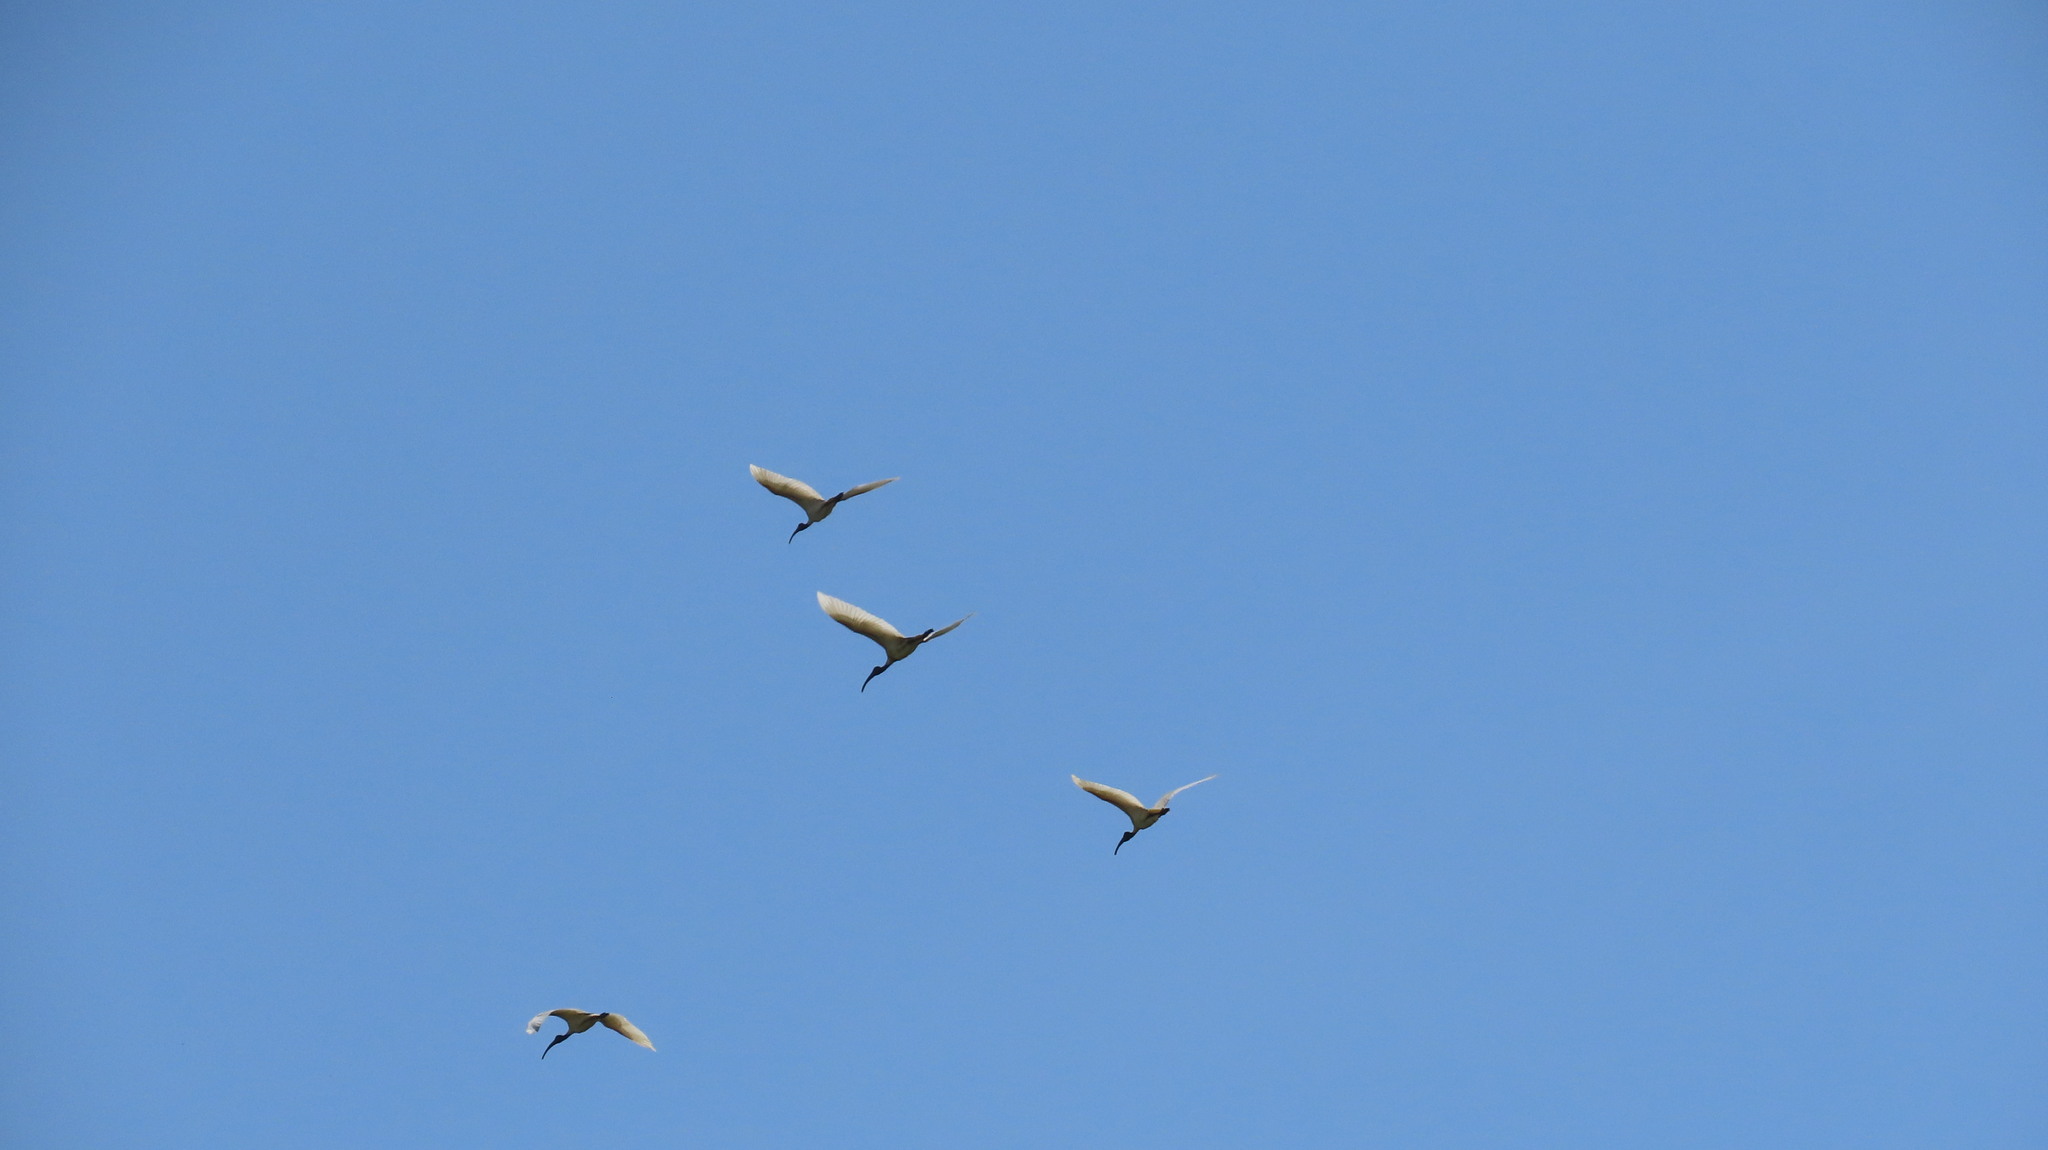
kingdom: Animalia
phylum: Chordata
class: Aves
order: Pelecaniformes
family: Threskiornithidae
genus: Threskiornis
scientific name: Threskiornis melanocephalus
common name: Black-headed ibis
